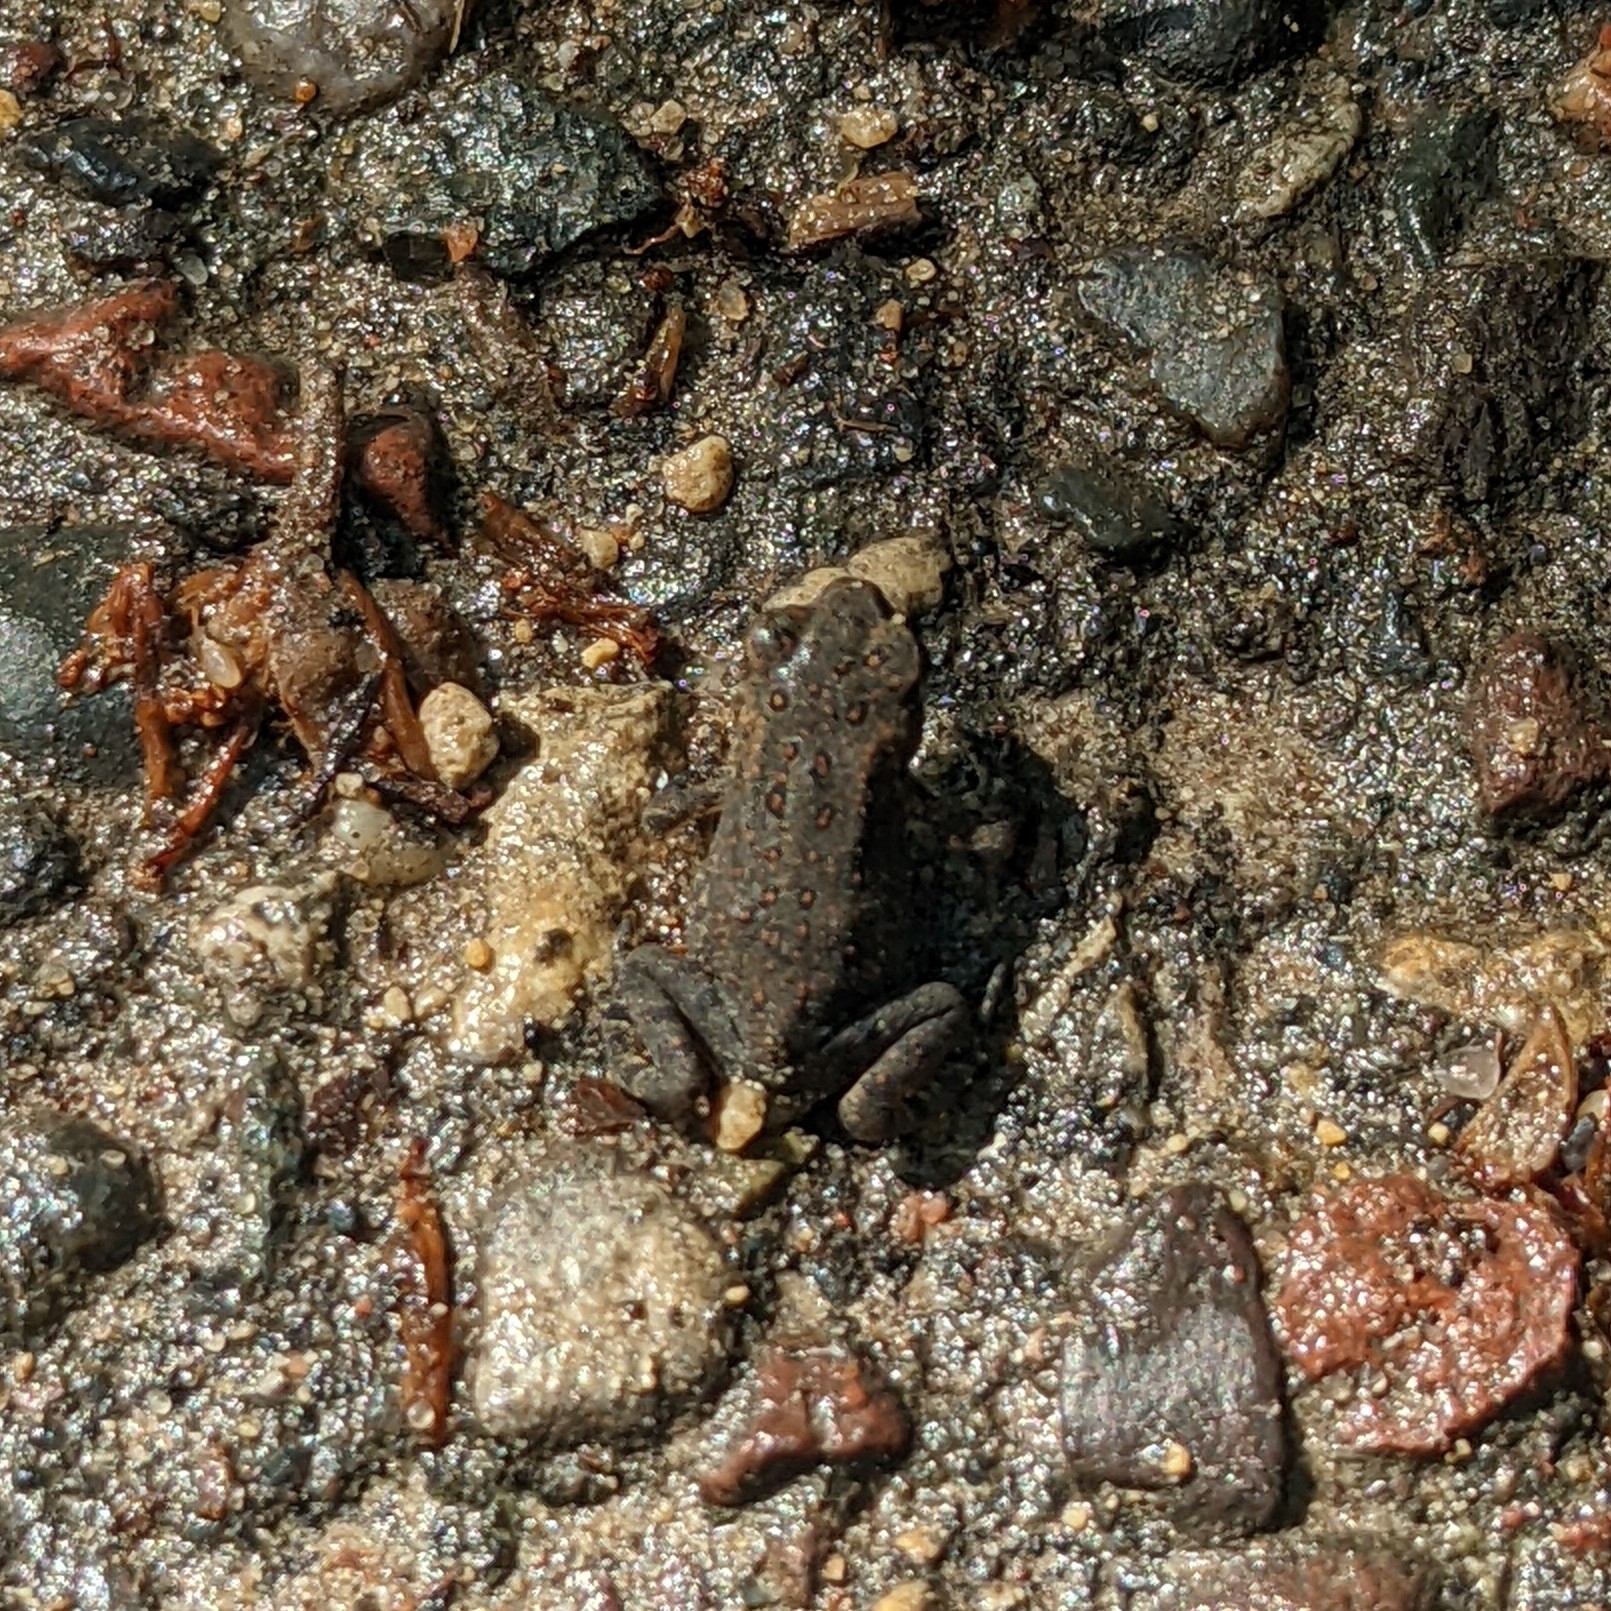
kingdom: Animalia
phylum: Chordata
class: Amphibia
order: Anura
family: Bufonidae
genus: Anaxyrus
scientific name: Anaxyrus americanus
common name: American toad
